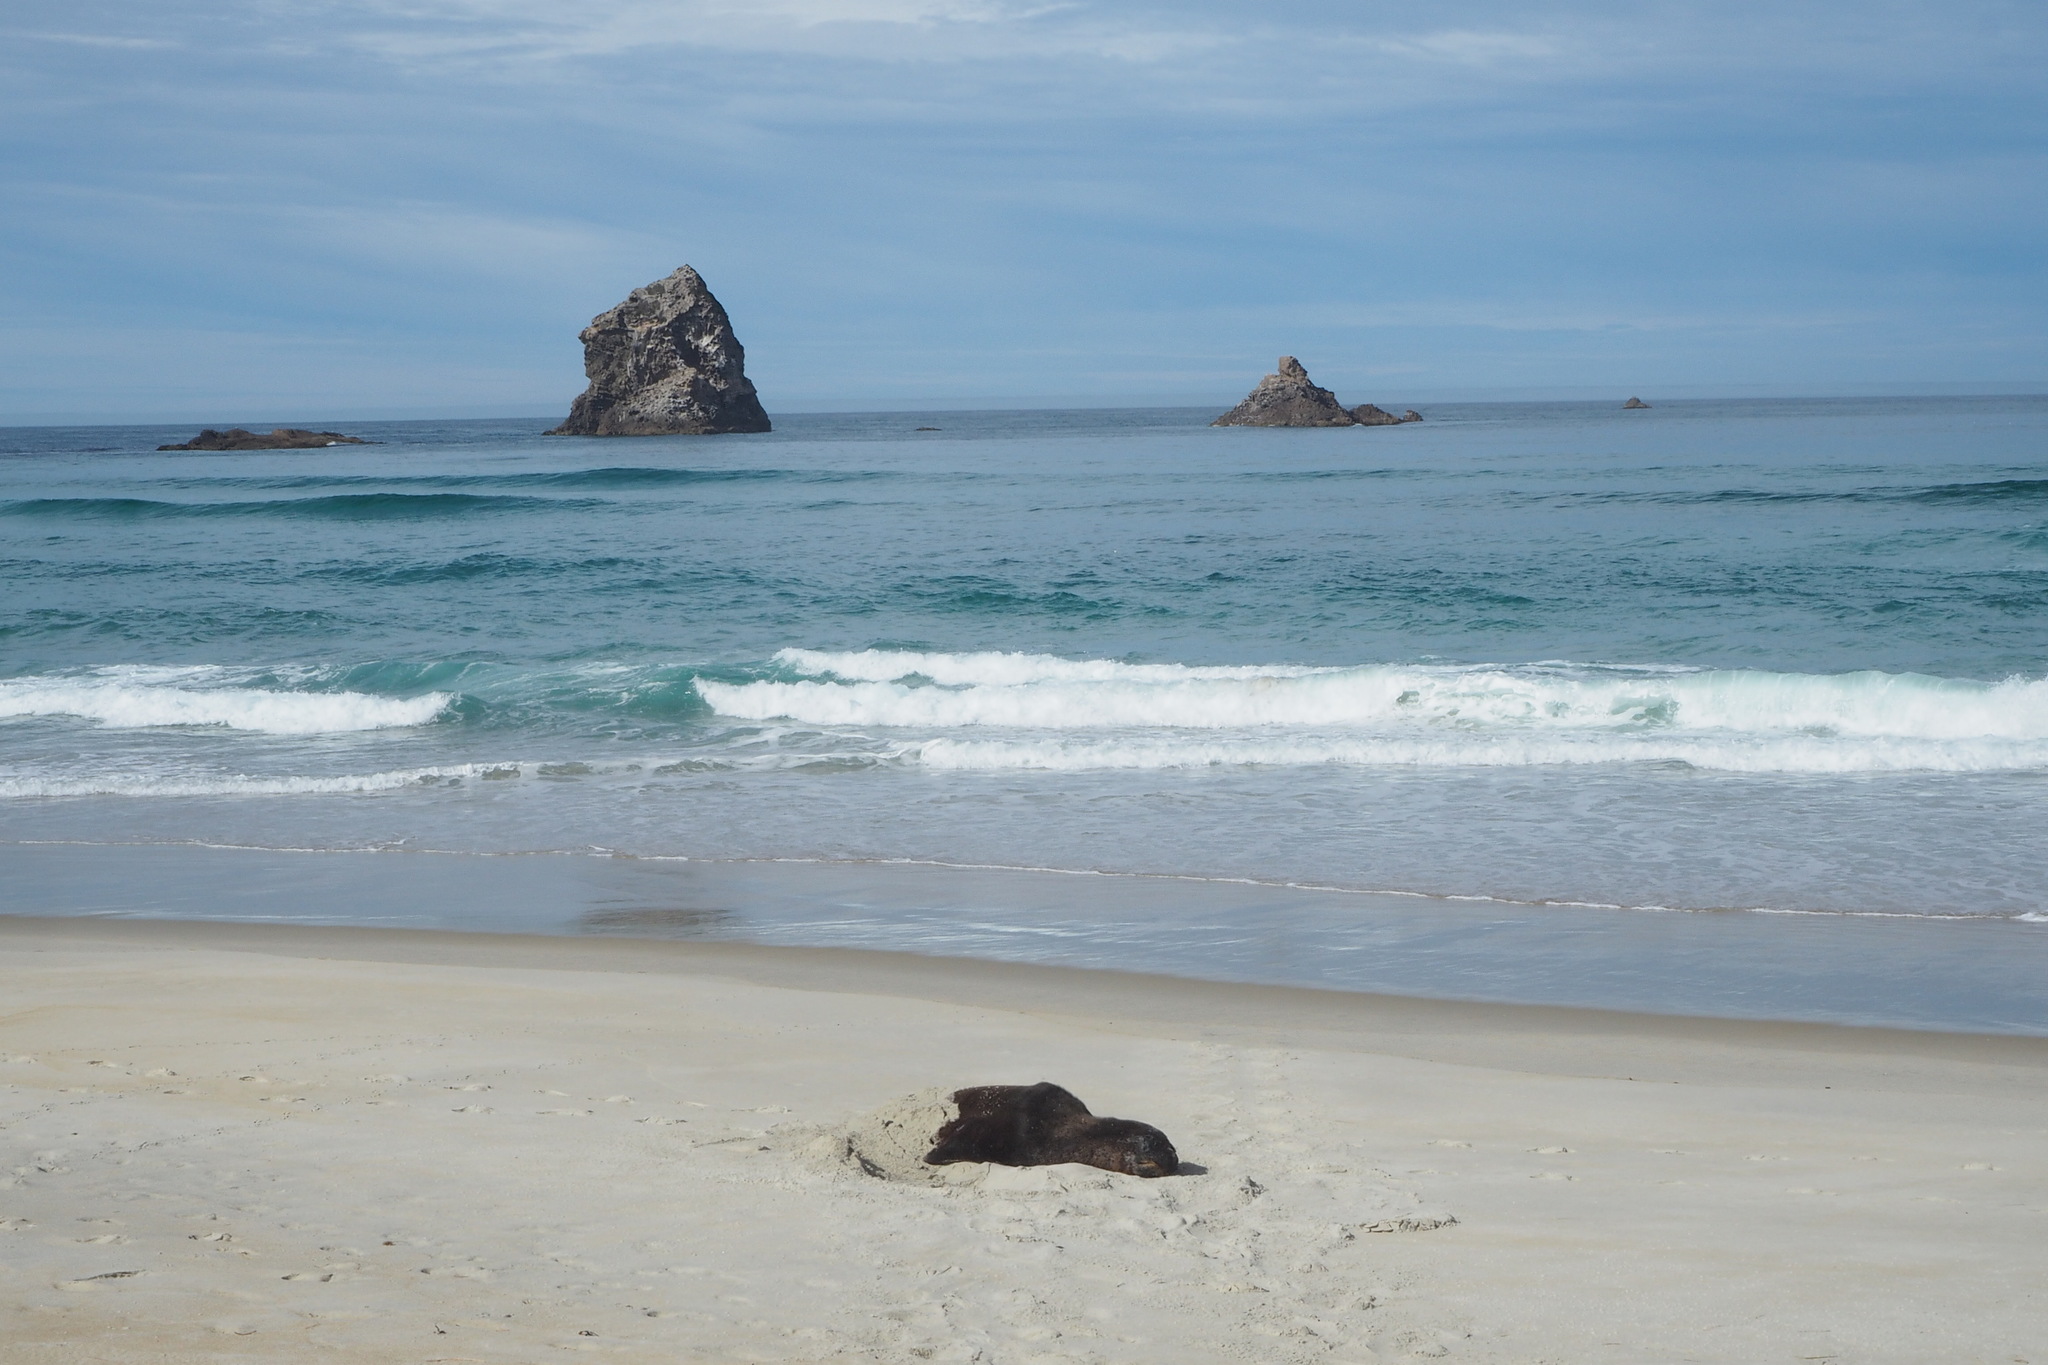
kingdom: Animalia
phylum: Chordata
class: Mammalia
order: Carnivora
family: Otariidae
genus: Phocarctos
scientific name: Phocarctos hookeri
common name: New zealand sea lion
